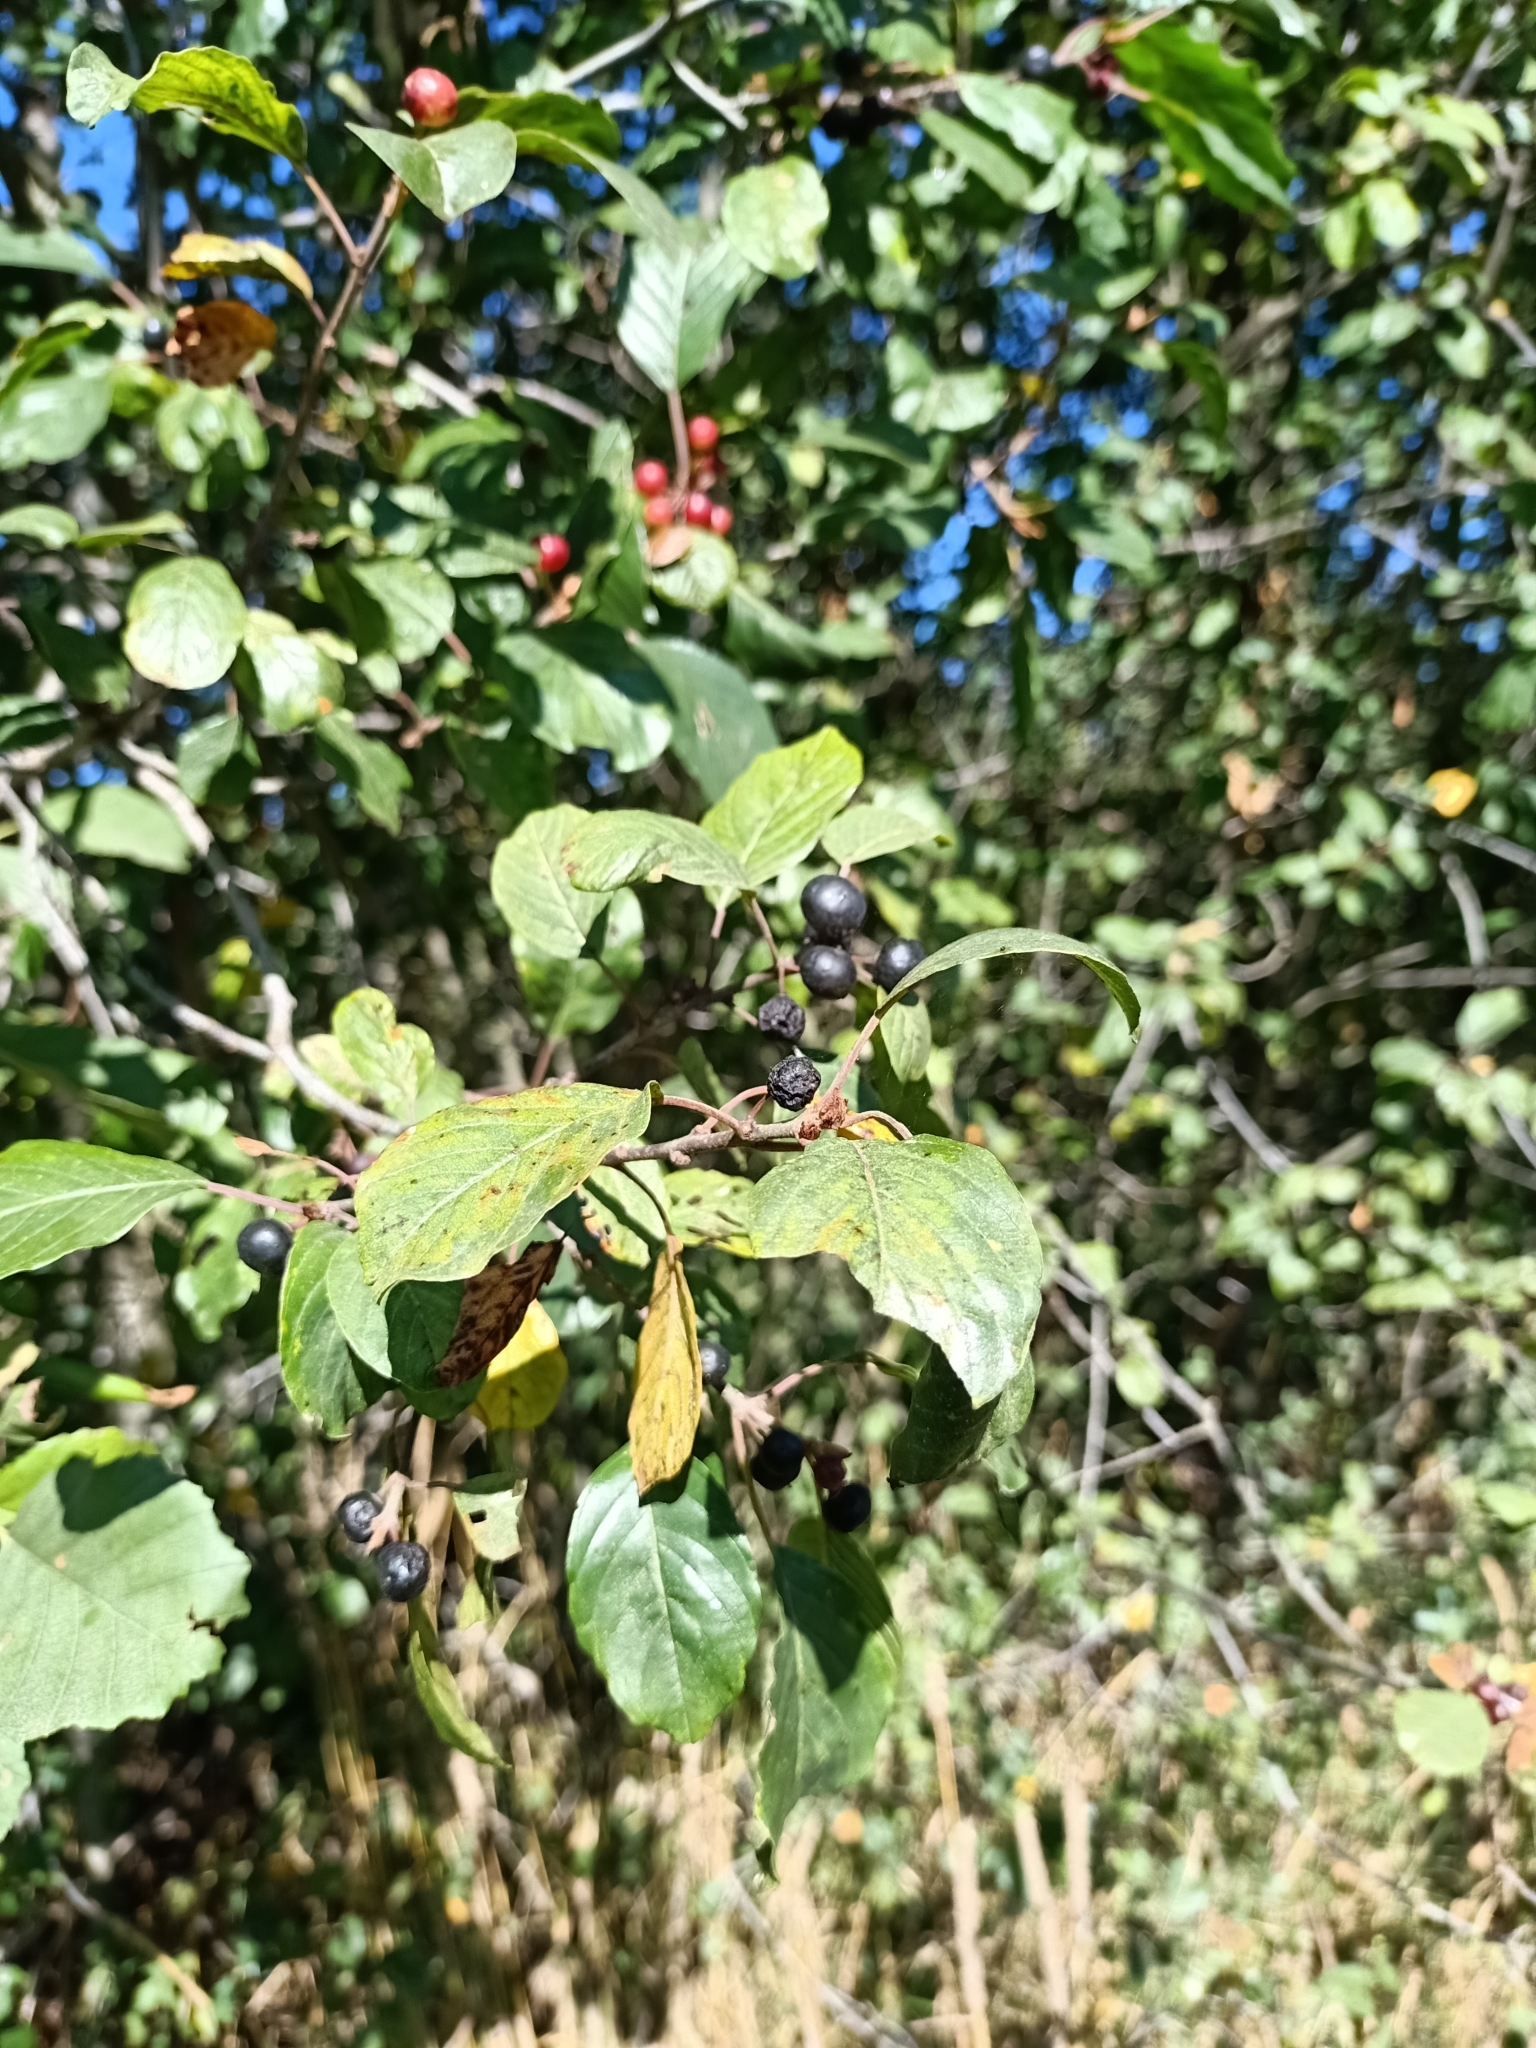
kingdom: Plantae
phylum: Tracheophyta
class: Magnoliopsida
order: Rosales
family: Rhamnaceae
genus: Frangula
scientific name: Frangula alnus
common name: Alder buckthorn
